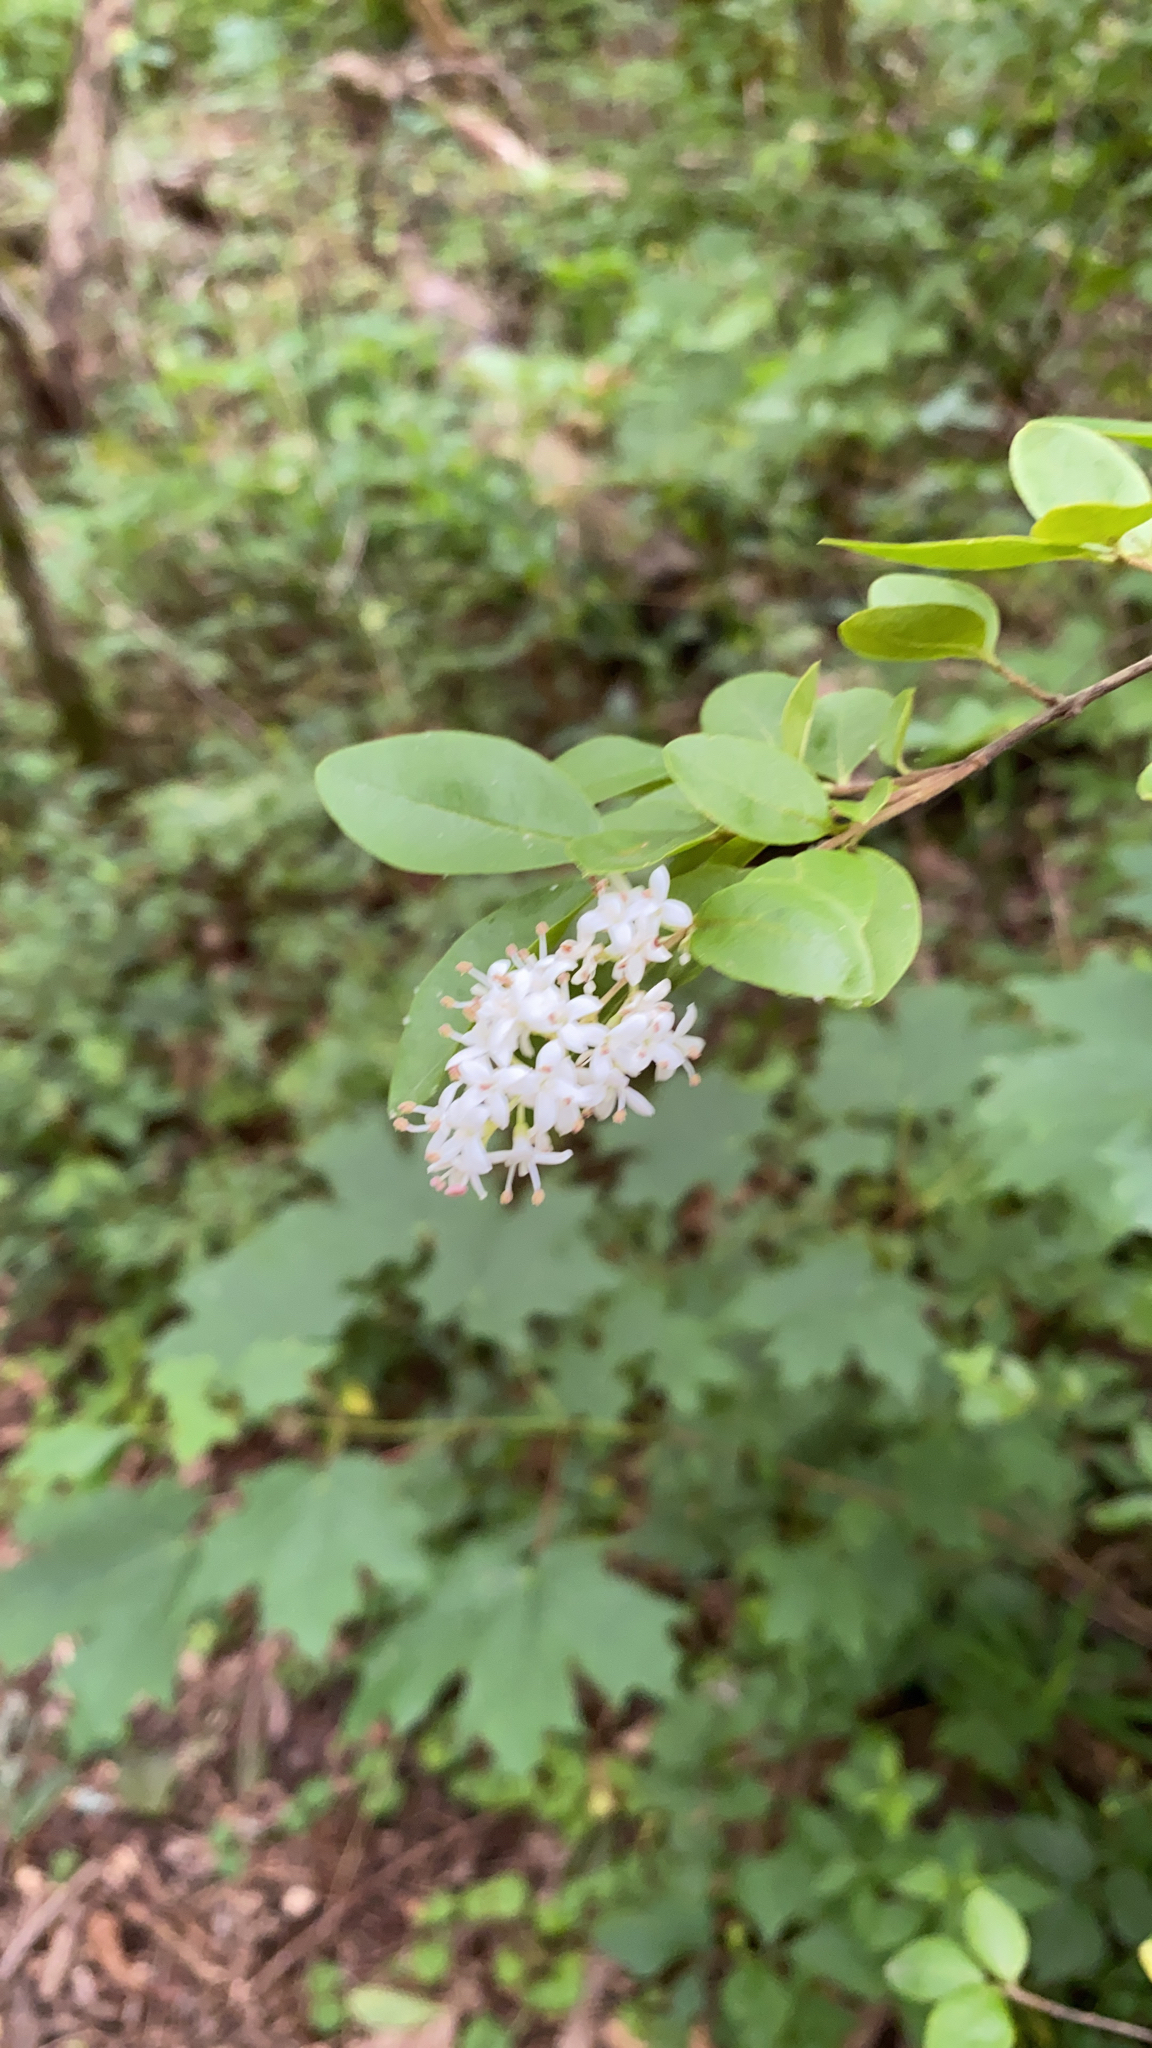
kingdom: Plantae
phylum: Tracheophyta
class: Magnoliopsida
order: Lamiales
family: Oleaceae
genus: Ligustrum
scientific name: Ligustrum sinense
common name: Chinese privet
